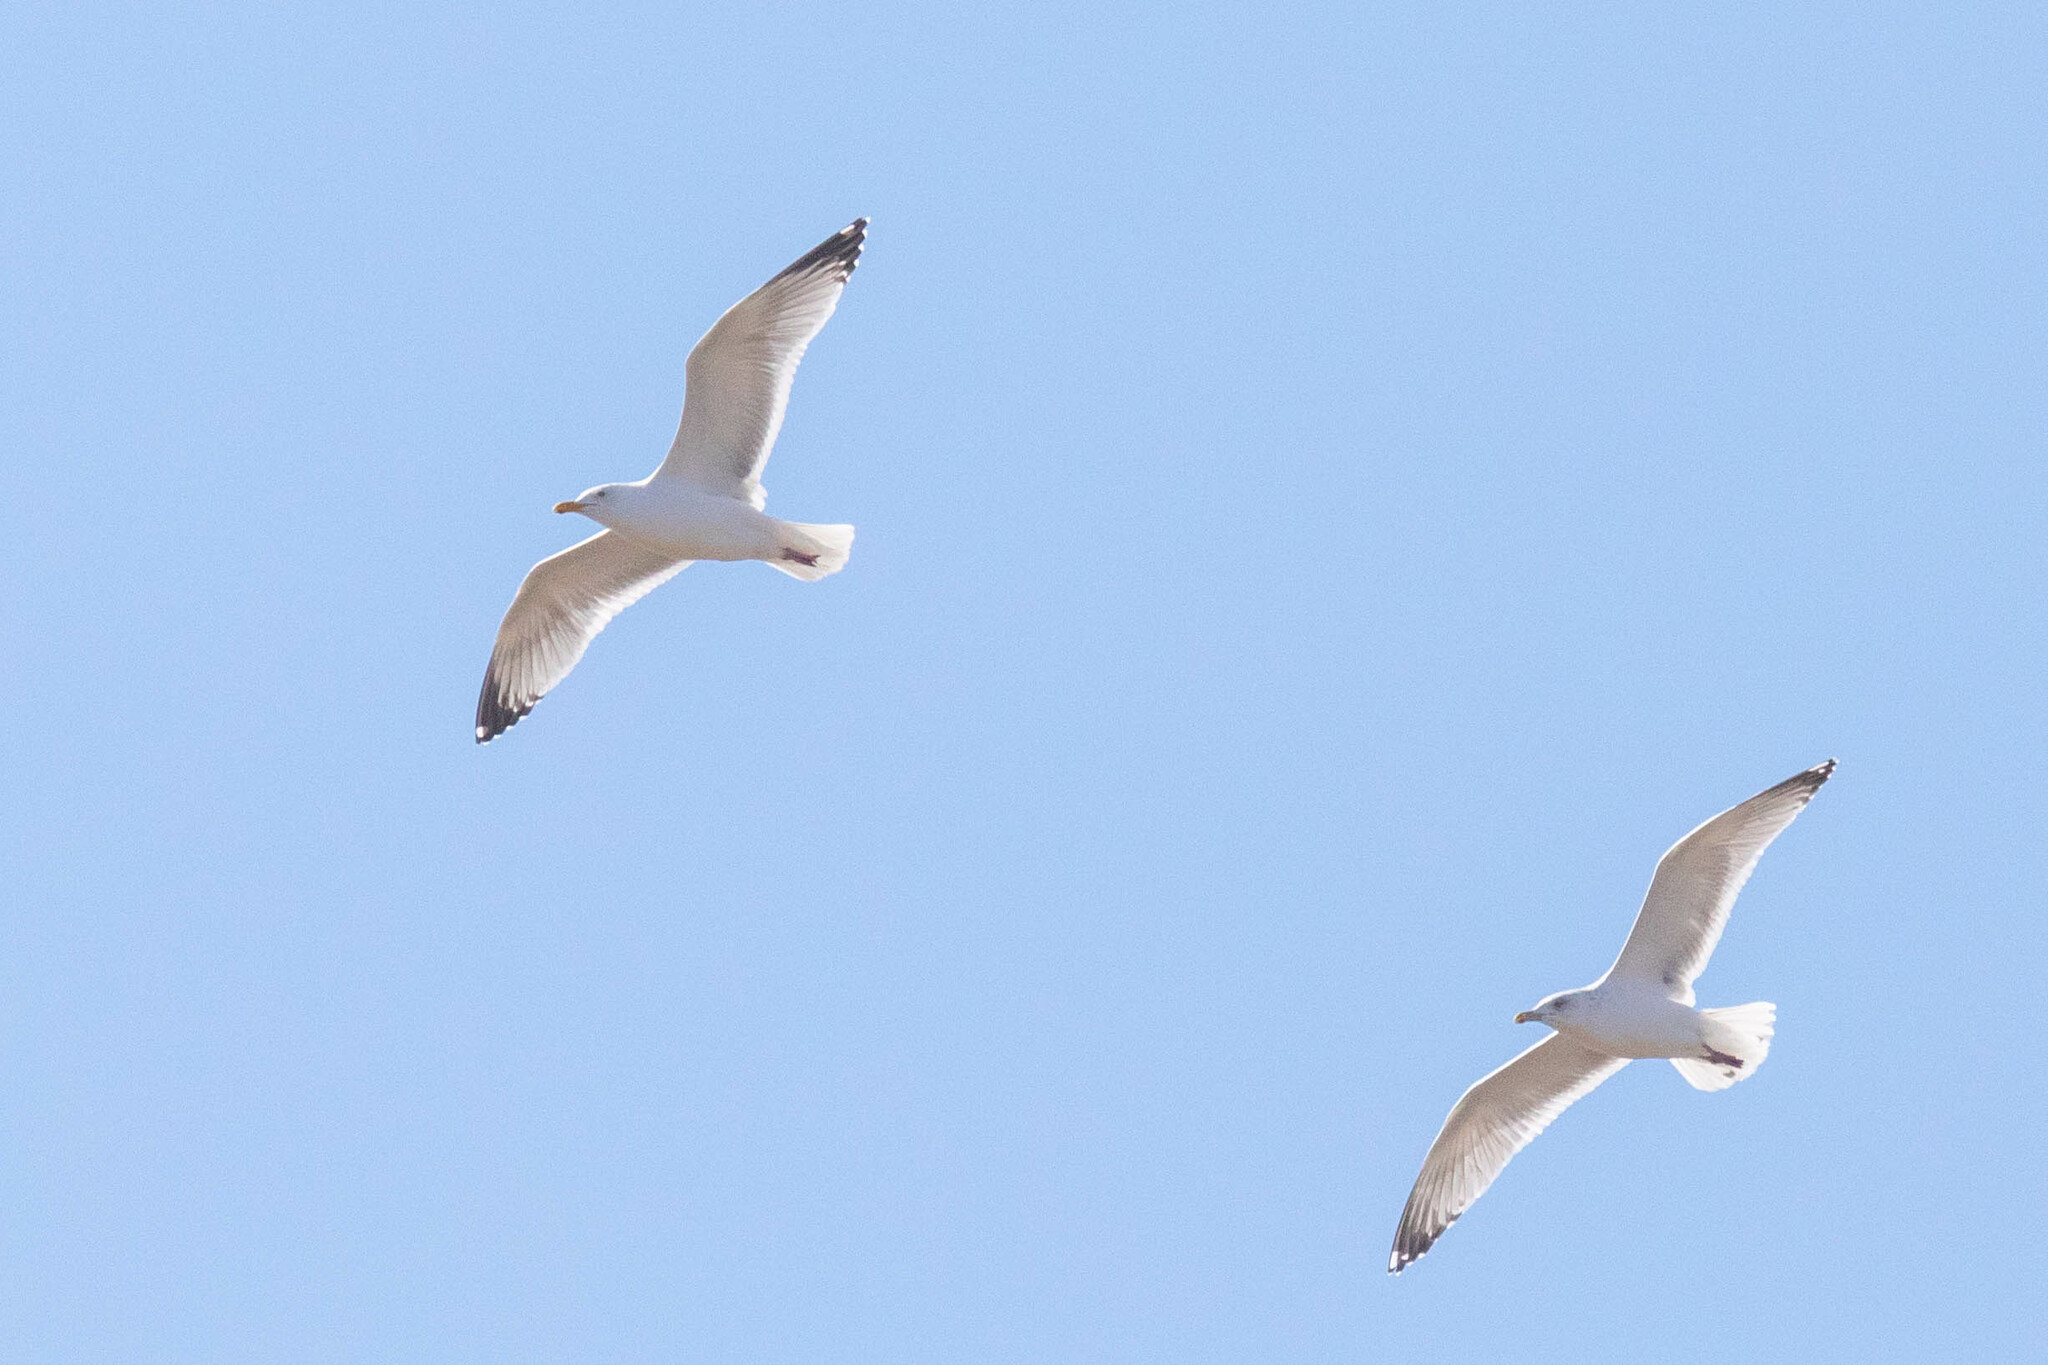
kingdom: Animalia
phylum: Chordata
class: Aves
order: Charadriiformes
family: Laridae
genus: Larus
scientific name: Larus argentatus
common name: Herring gull
